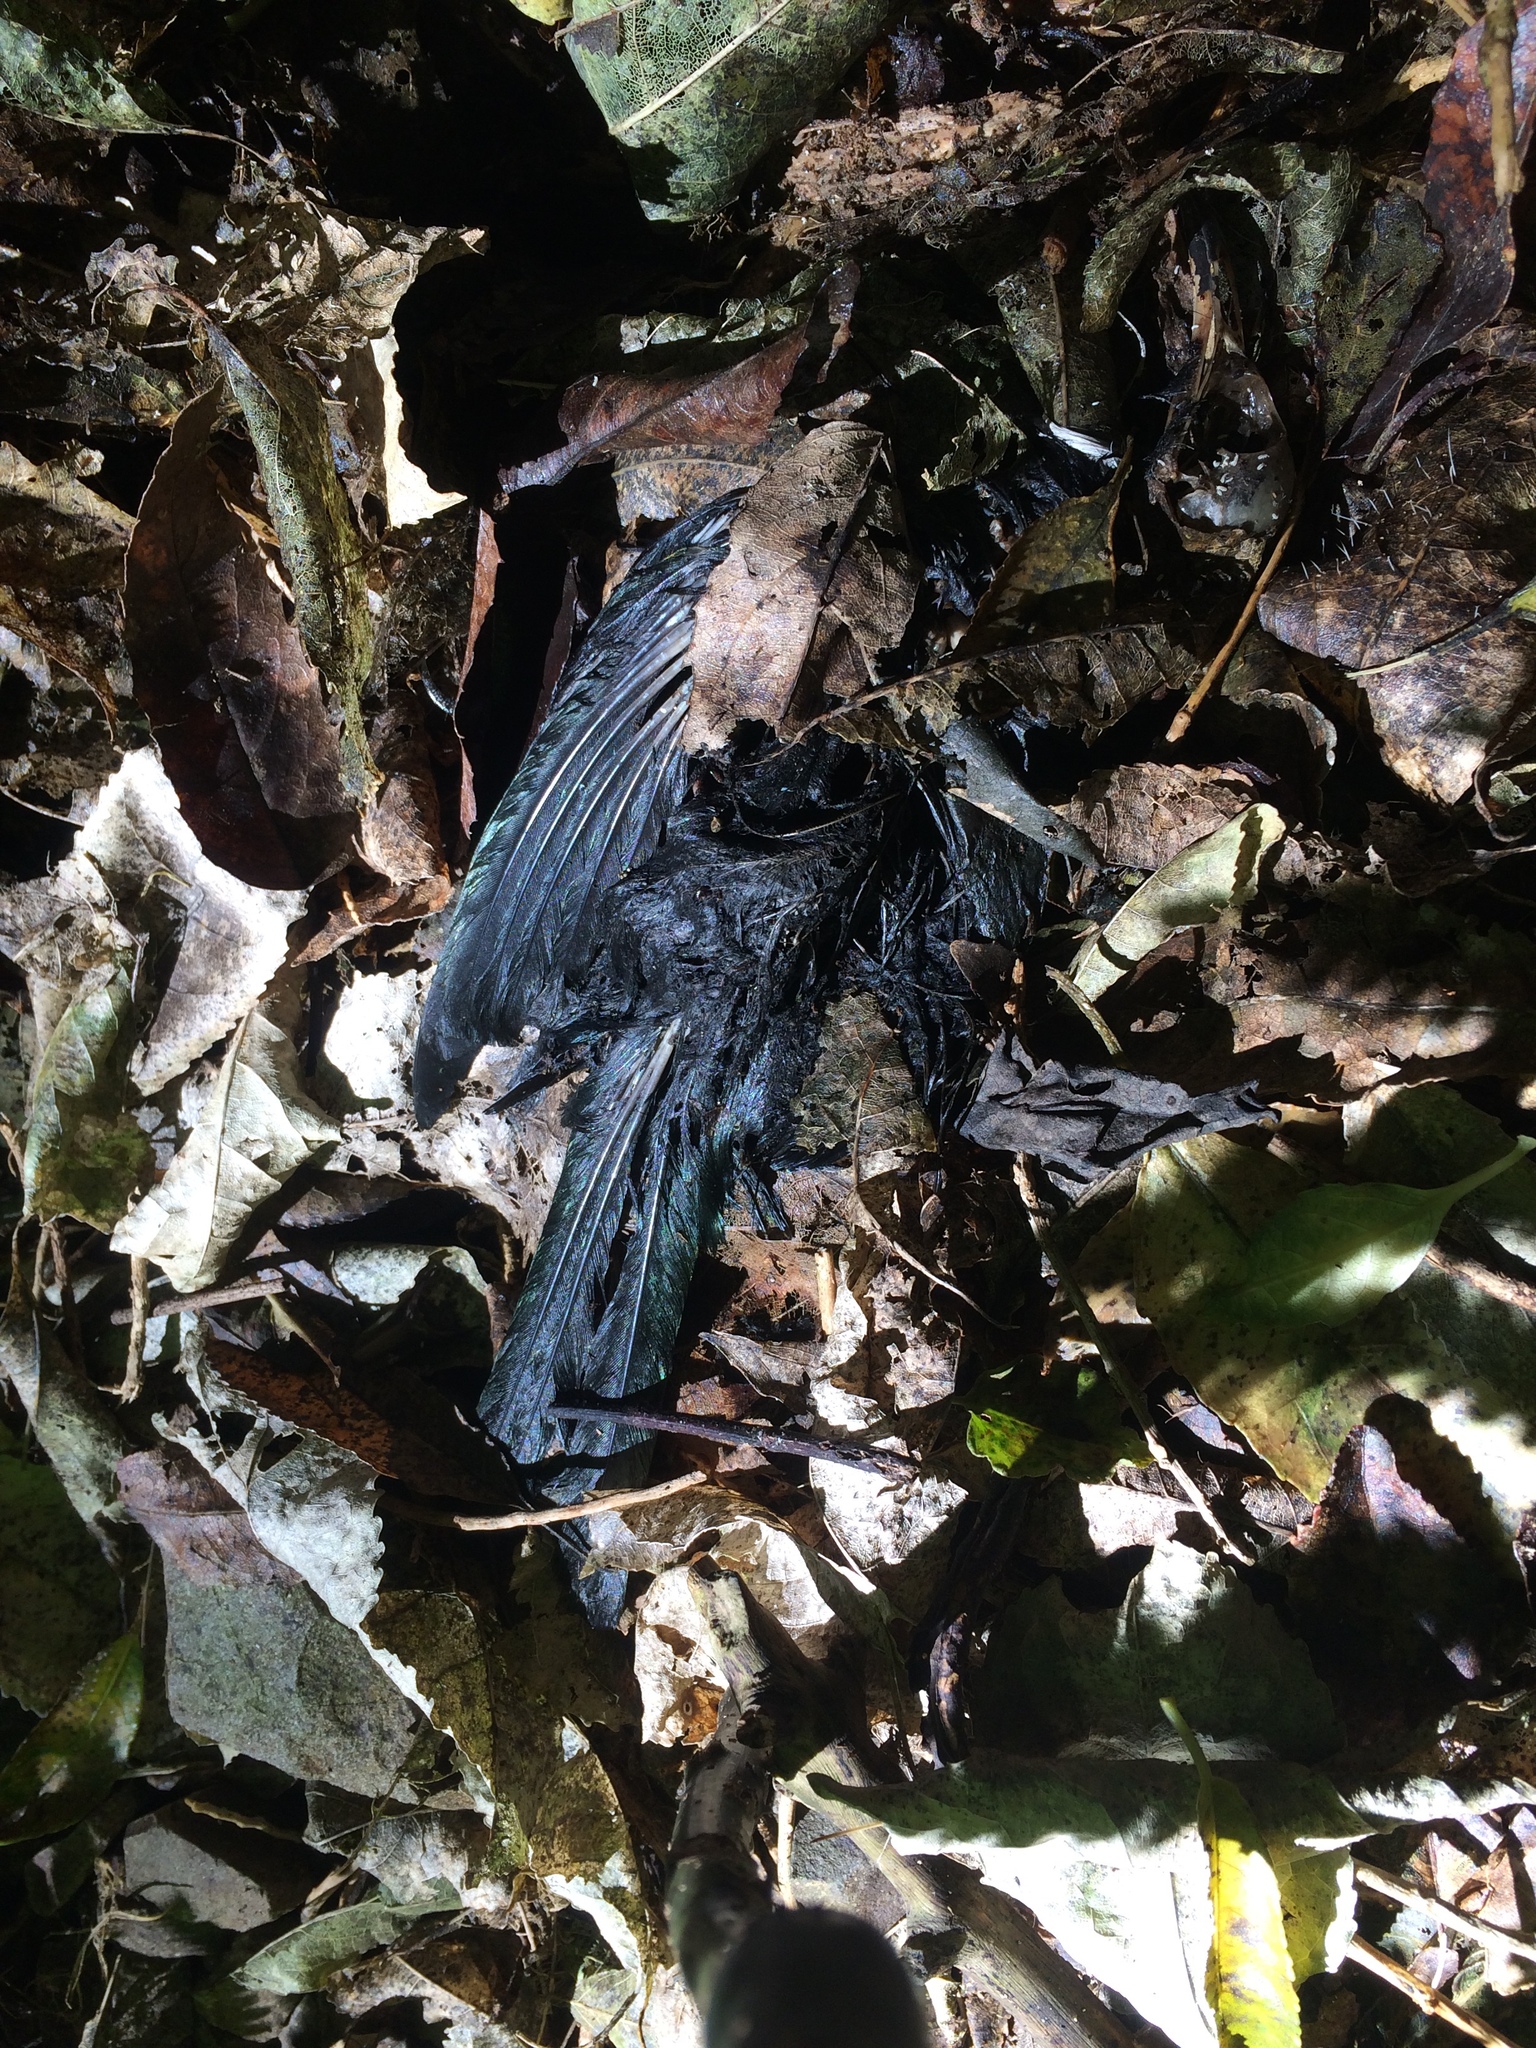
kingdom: Animalia
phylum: Chordata
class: Aves
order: Passeriformes
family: Meliphagidae
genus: Prosthemadera
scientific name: Prosthemadera novaeseelandiae
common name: Tui
